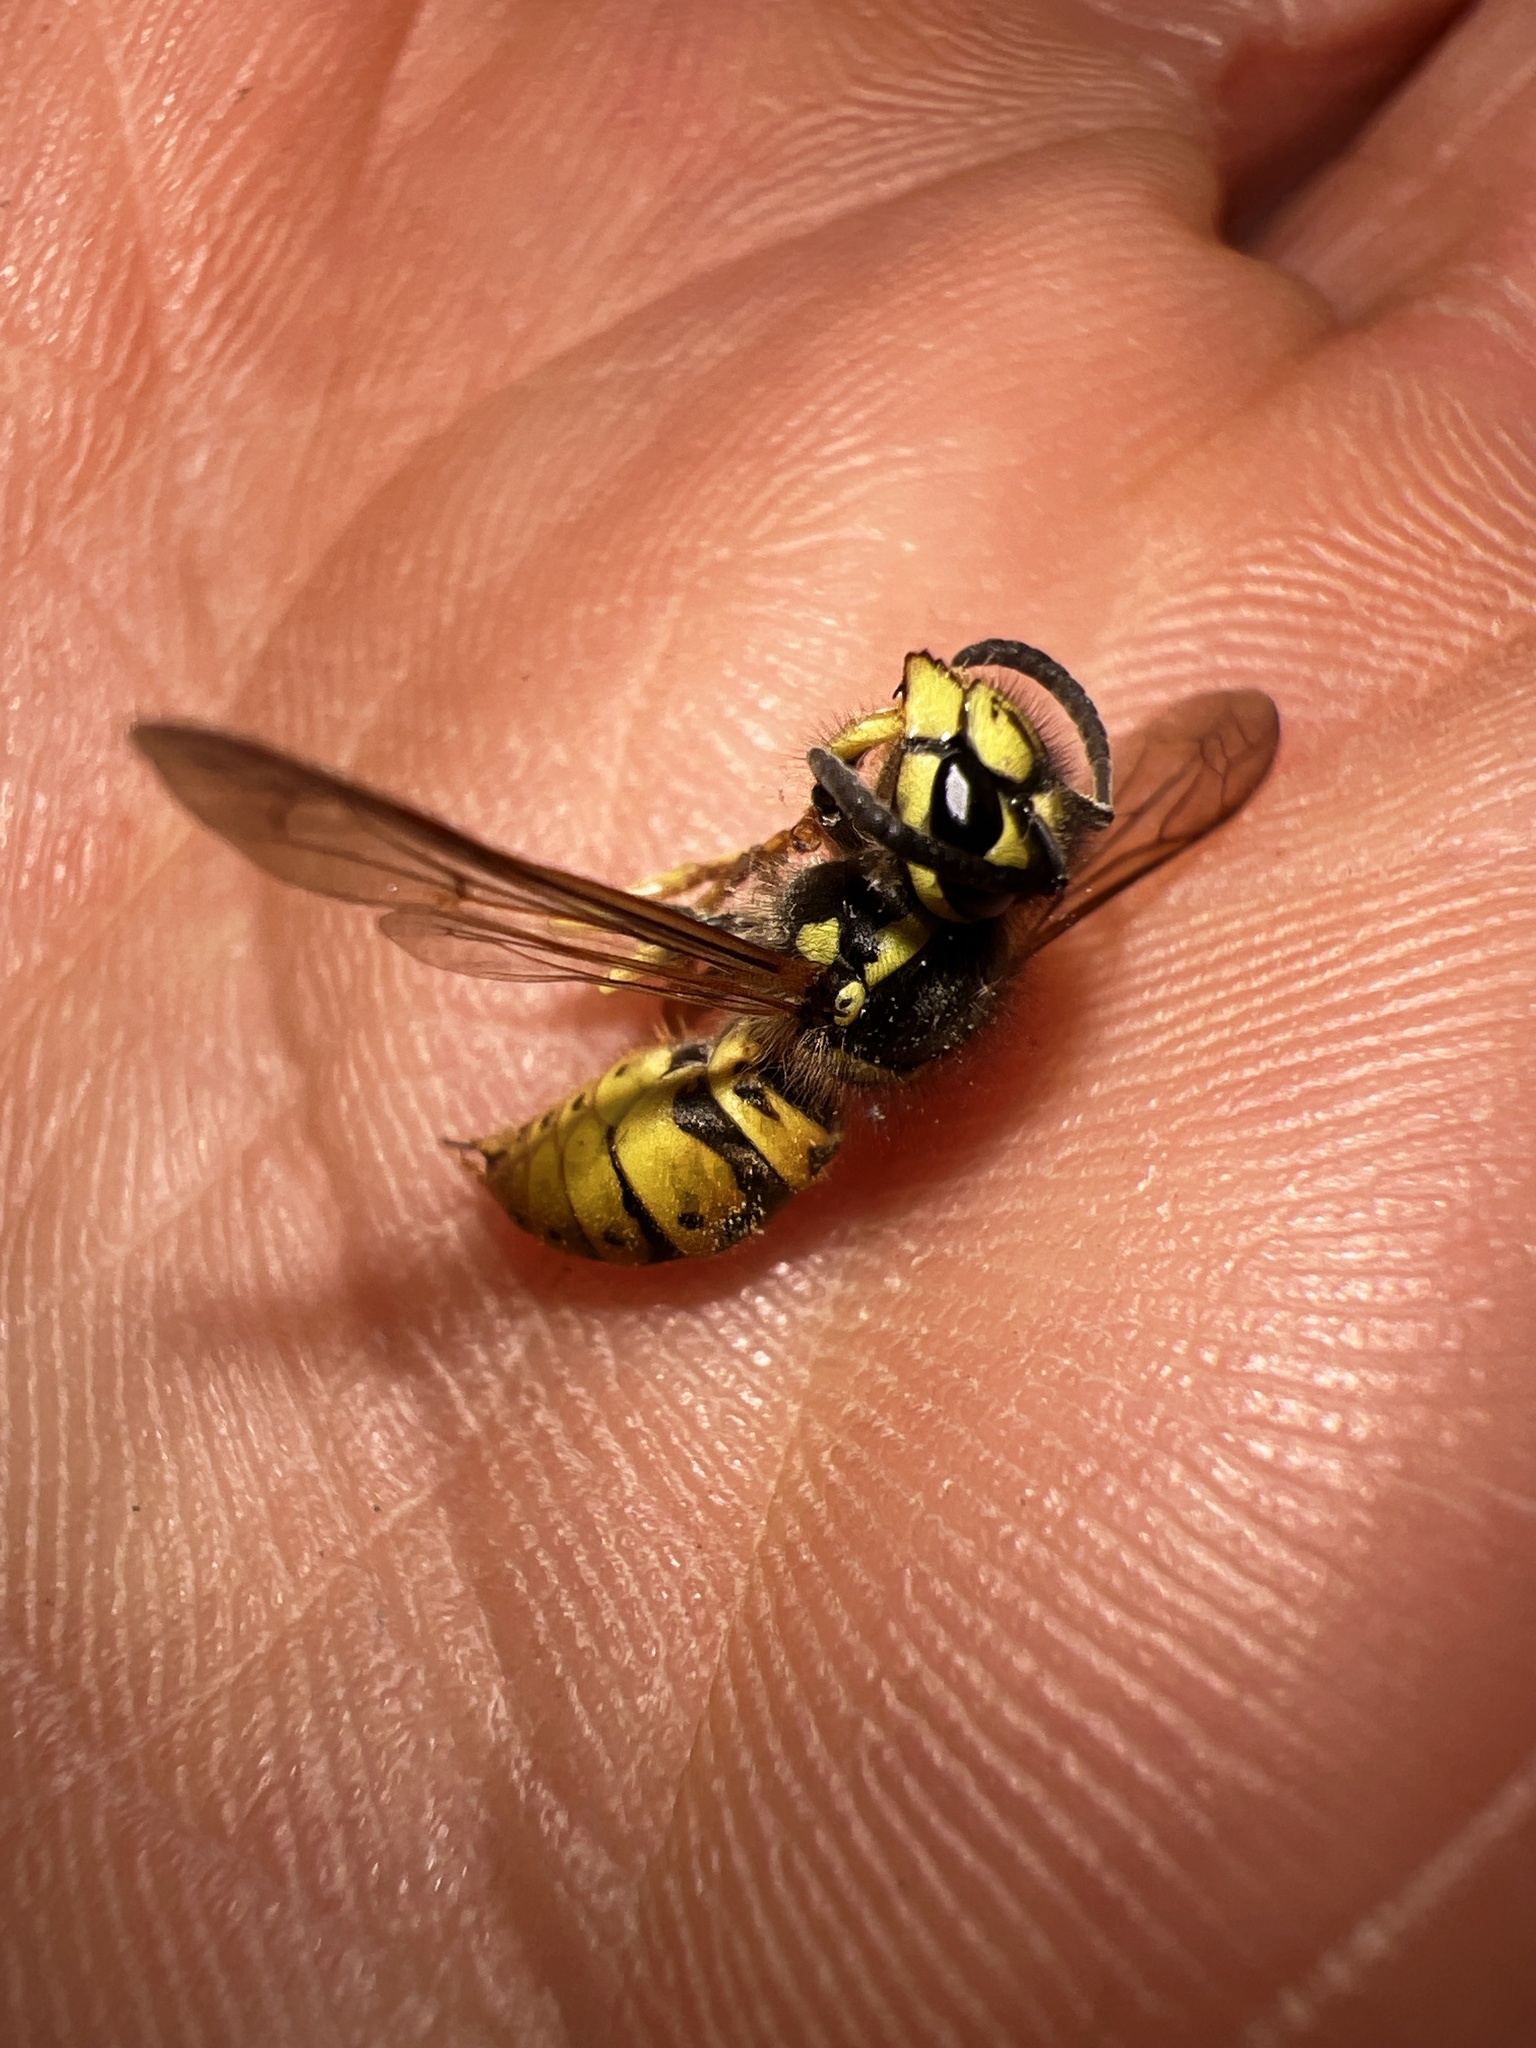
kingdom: Animalia
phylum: Arthropoda
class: Insecta
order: Hymenoptera
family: Vespidae
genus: Vespula
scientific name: Vespula germanica
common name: German wasp
